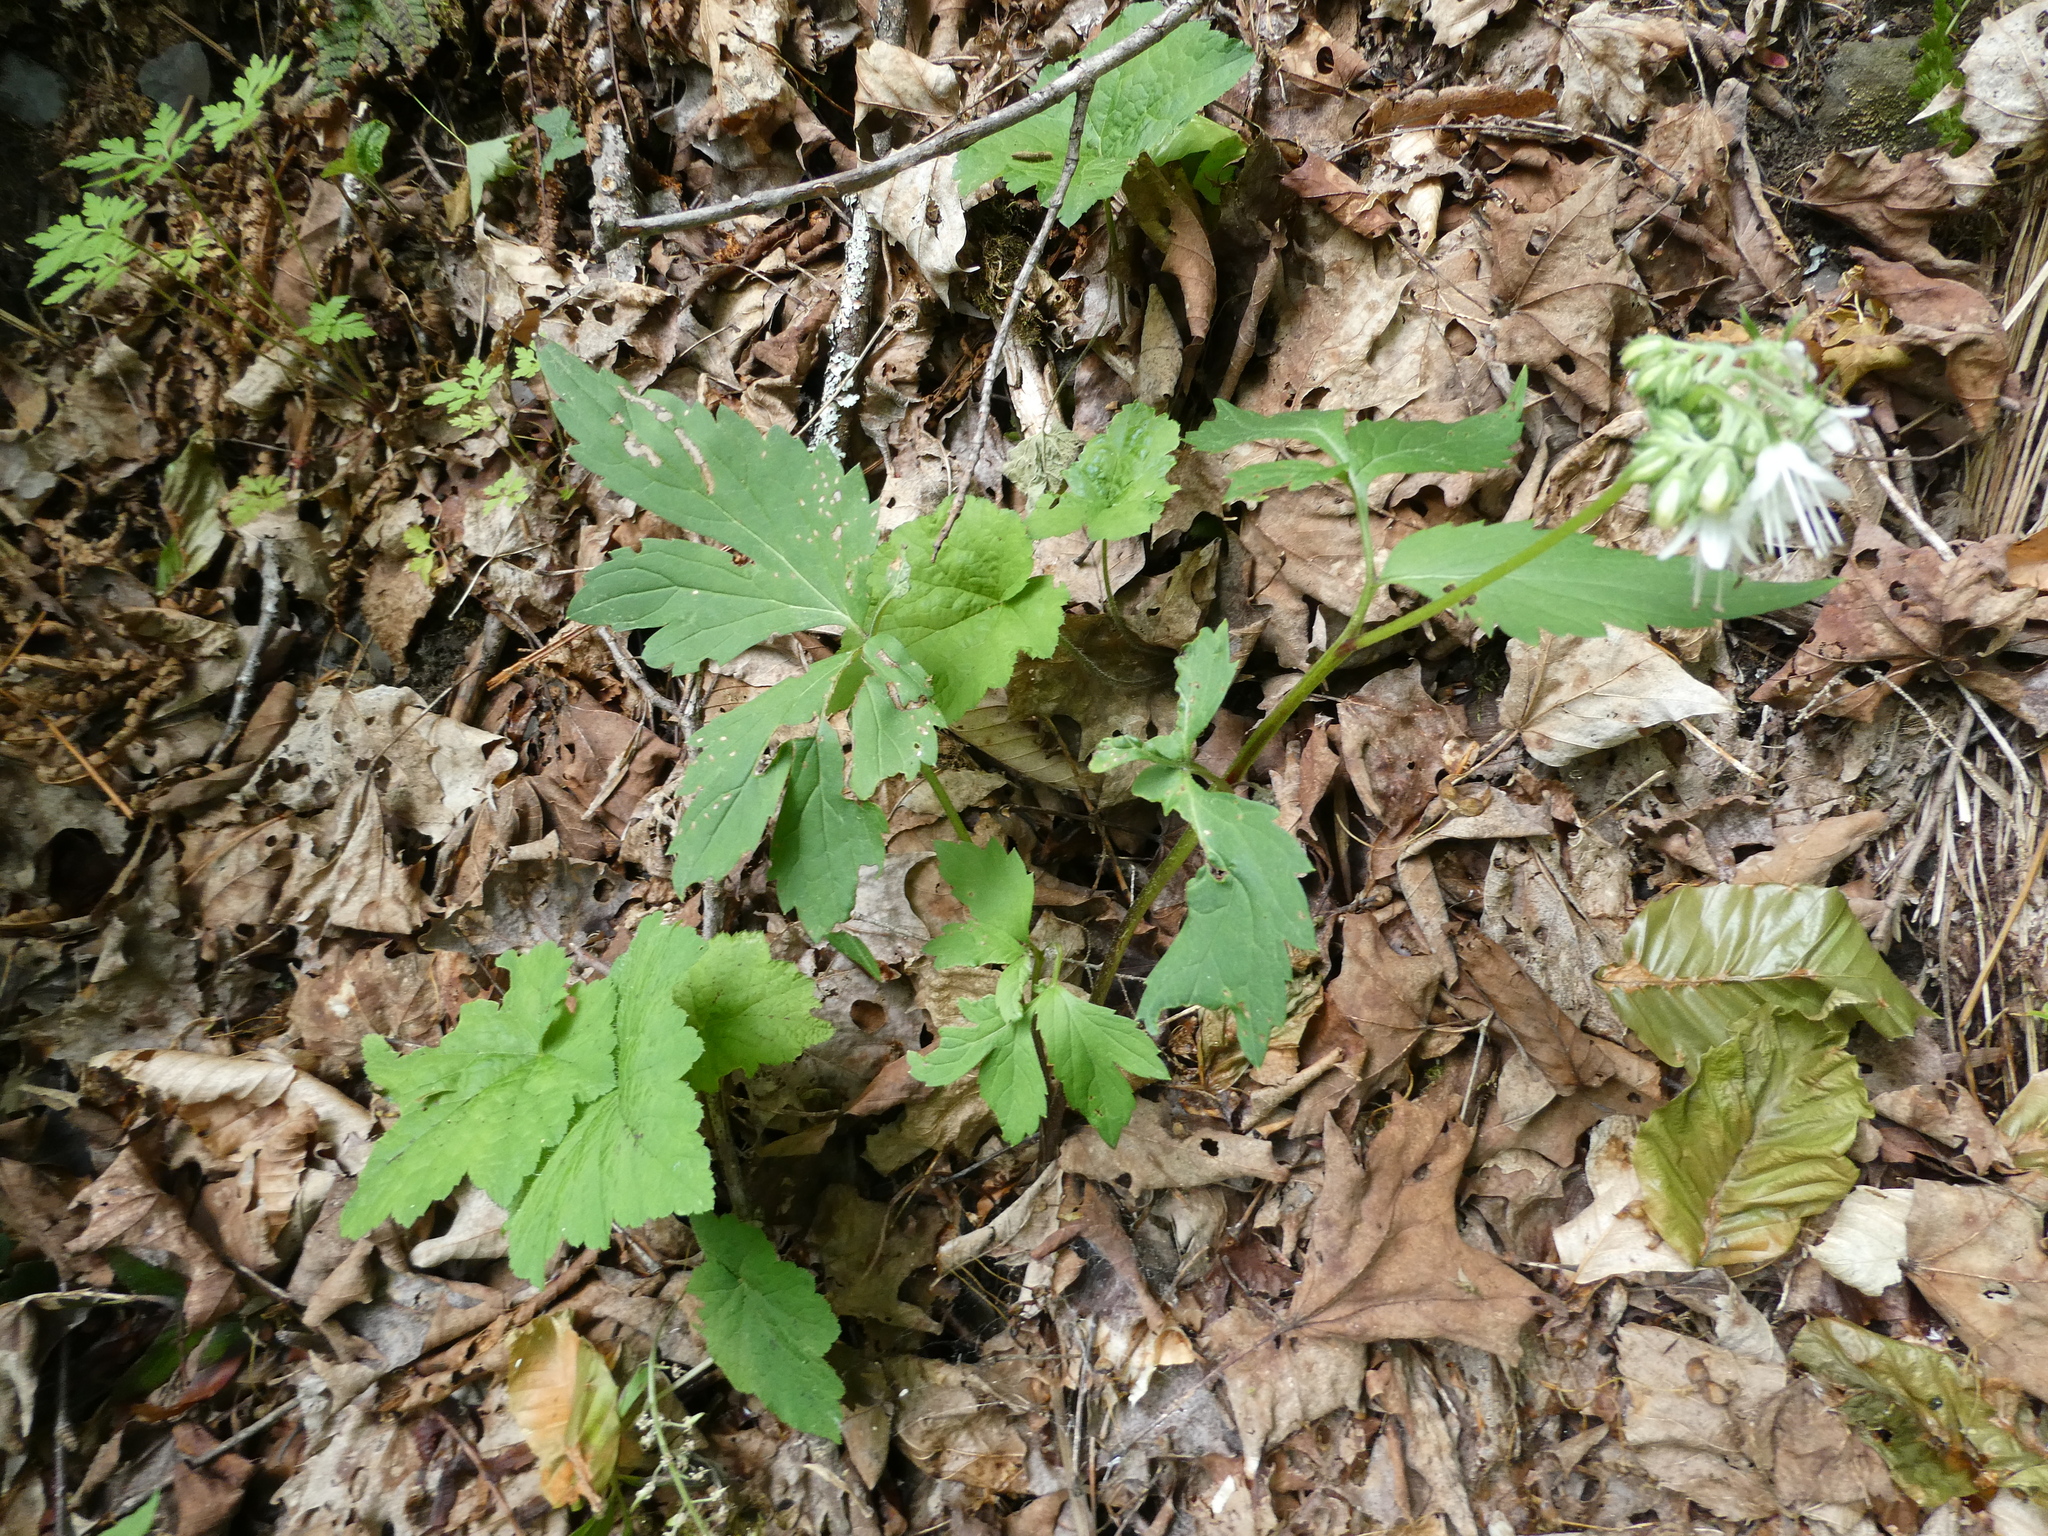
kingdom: Plantae
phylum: Tracheophyta
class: Magnoliopsida
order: Boraginales
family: Hydrophyllaceae
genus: Hydrophyllum
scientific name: Hydrophyllum virginianum
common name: Virginia waterleaf
